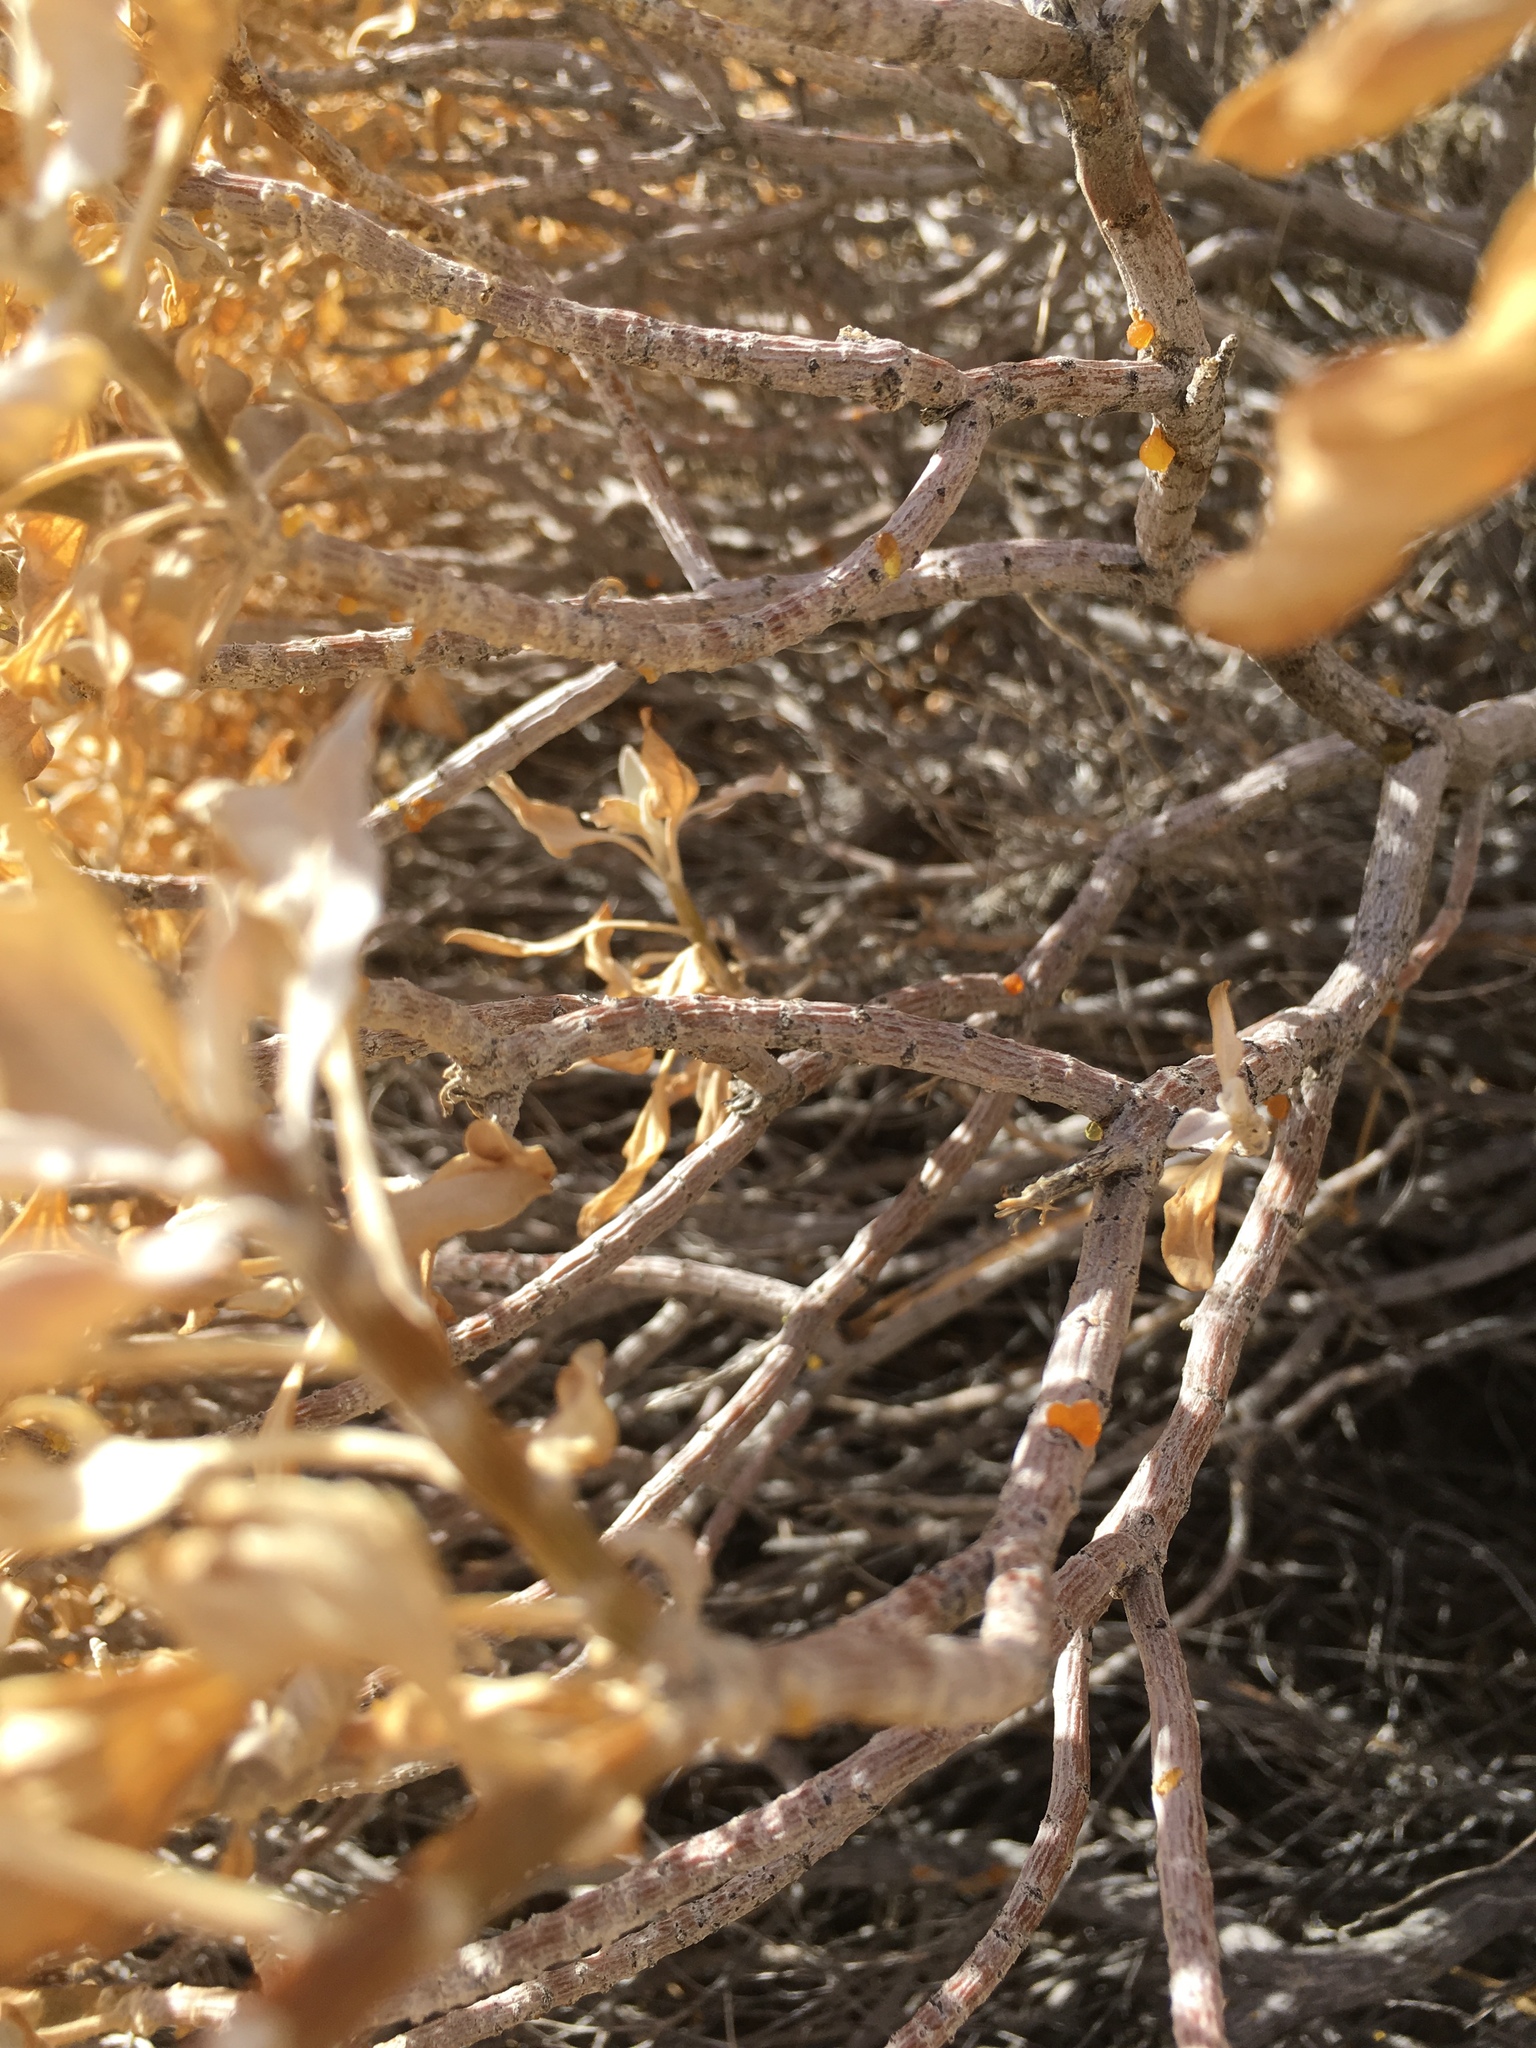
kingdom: Plantae
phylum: Tracheophyta
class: Magnoliopsida
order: Asterales
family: Asteraceae
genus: Encelia
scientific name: Encelia farinosa
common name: Brittlebush
